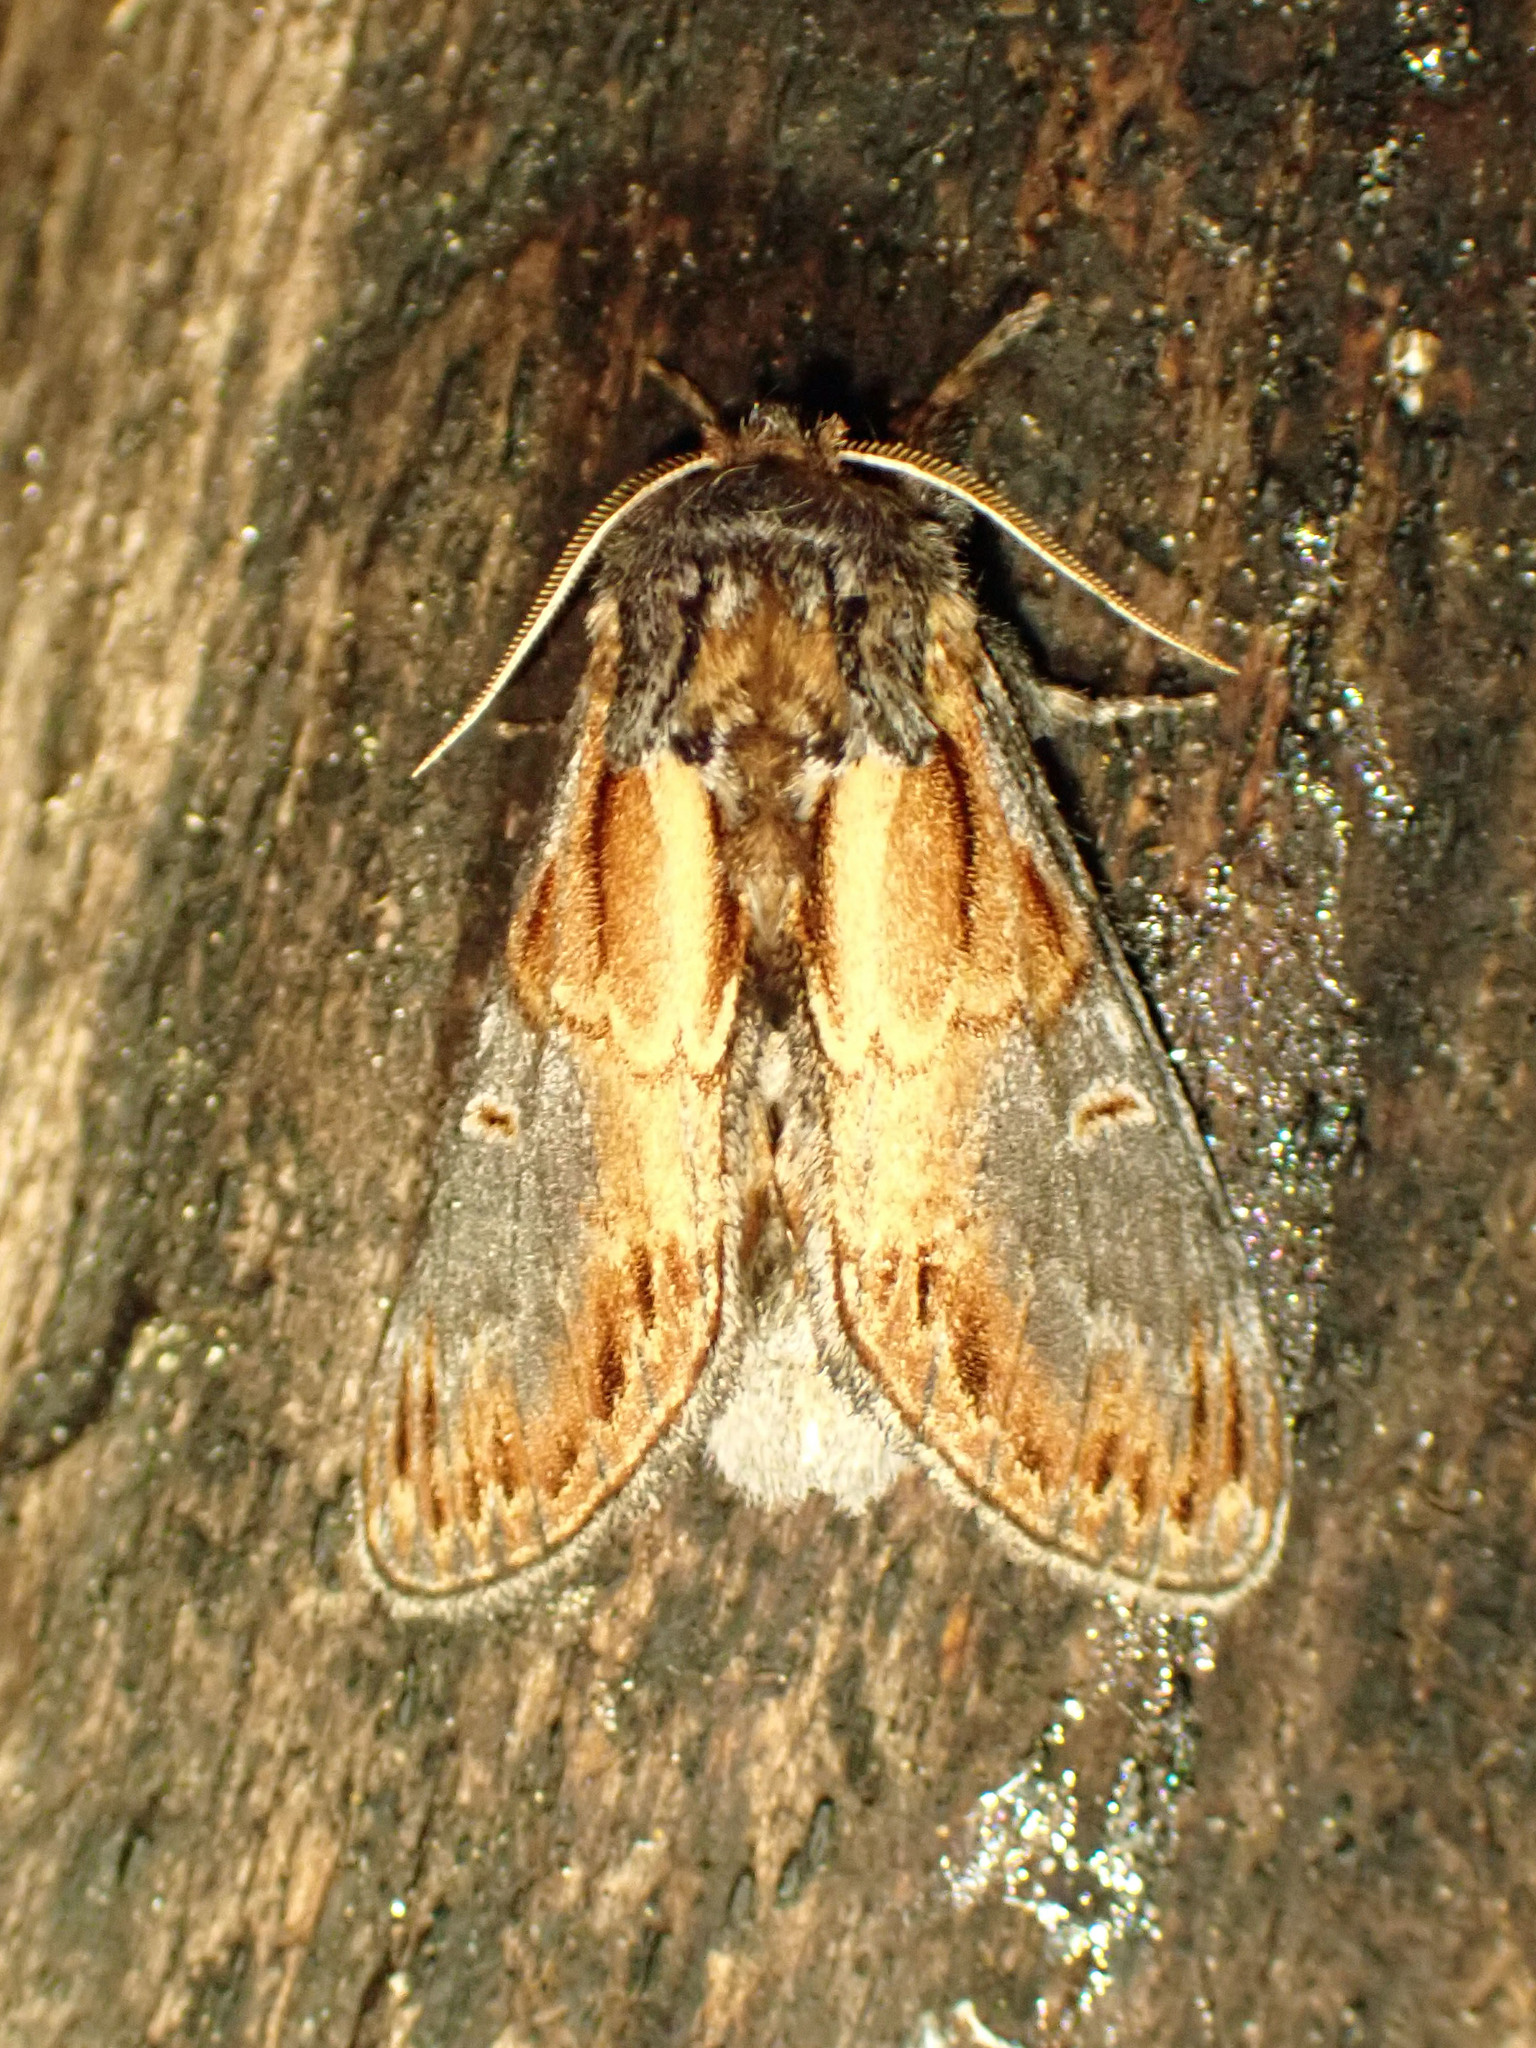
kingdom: Animalia
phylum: Arthropoda
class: Insecta
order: Lepidoptera
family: Notodontidae
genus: Notodonta
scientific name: Notodonta scitipennis
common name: Finned-willow prominent moth
